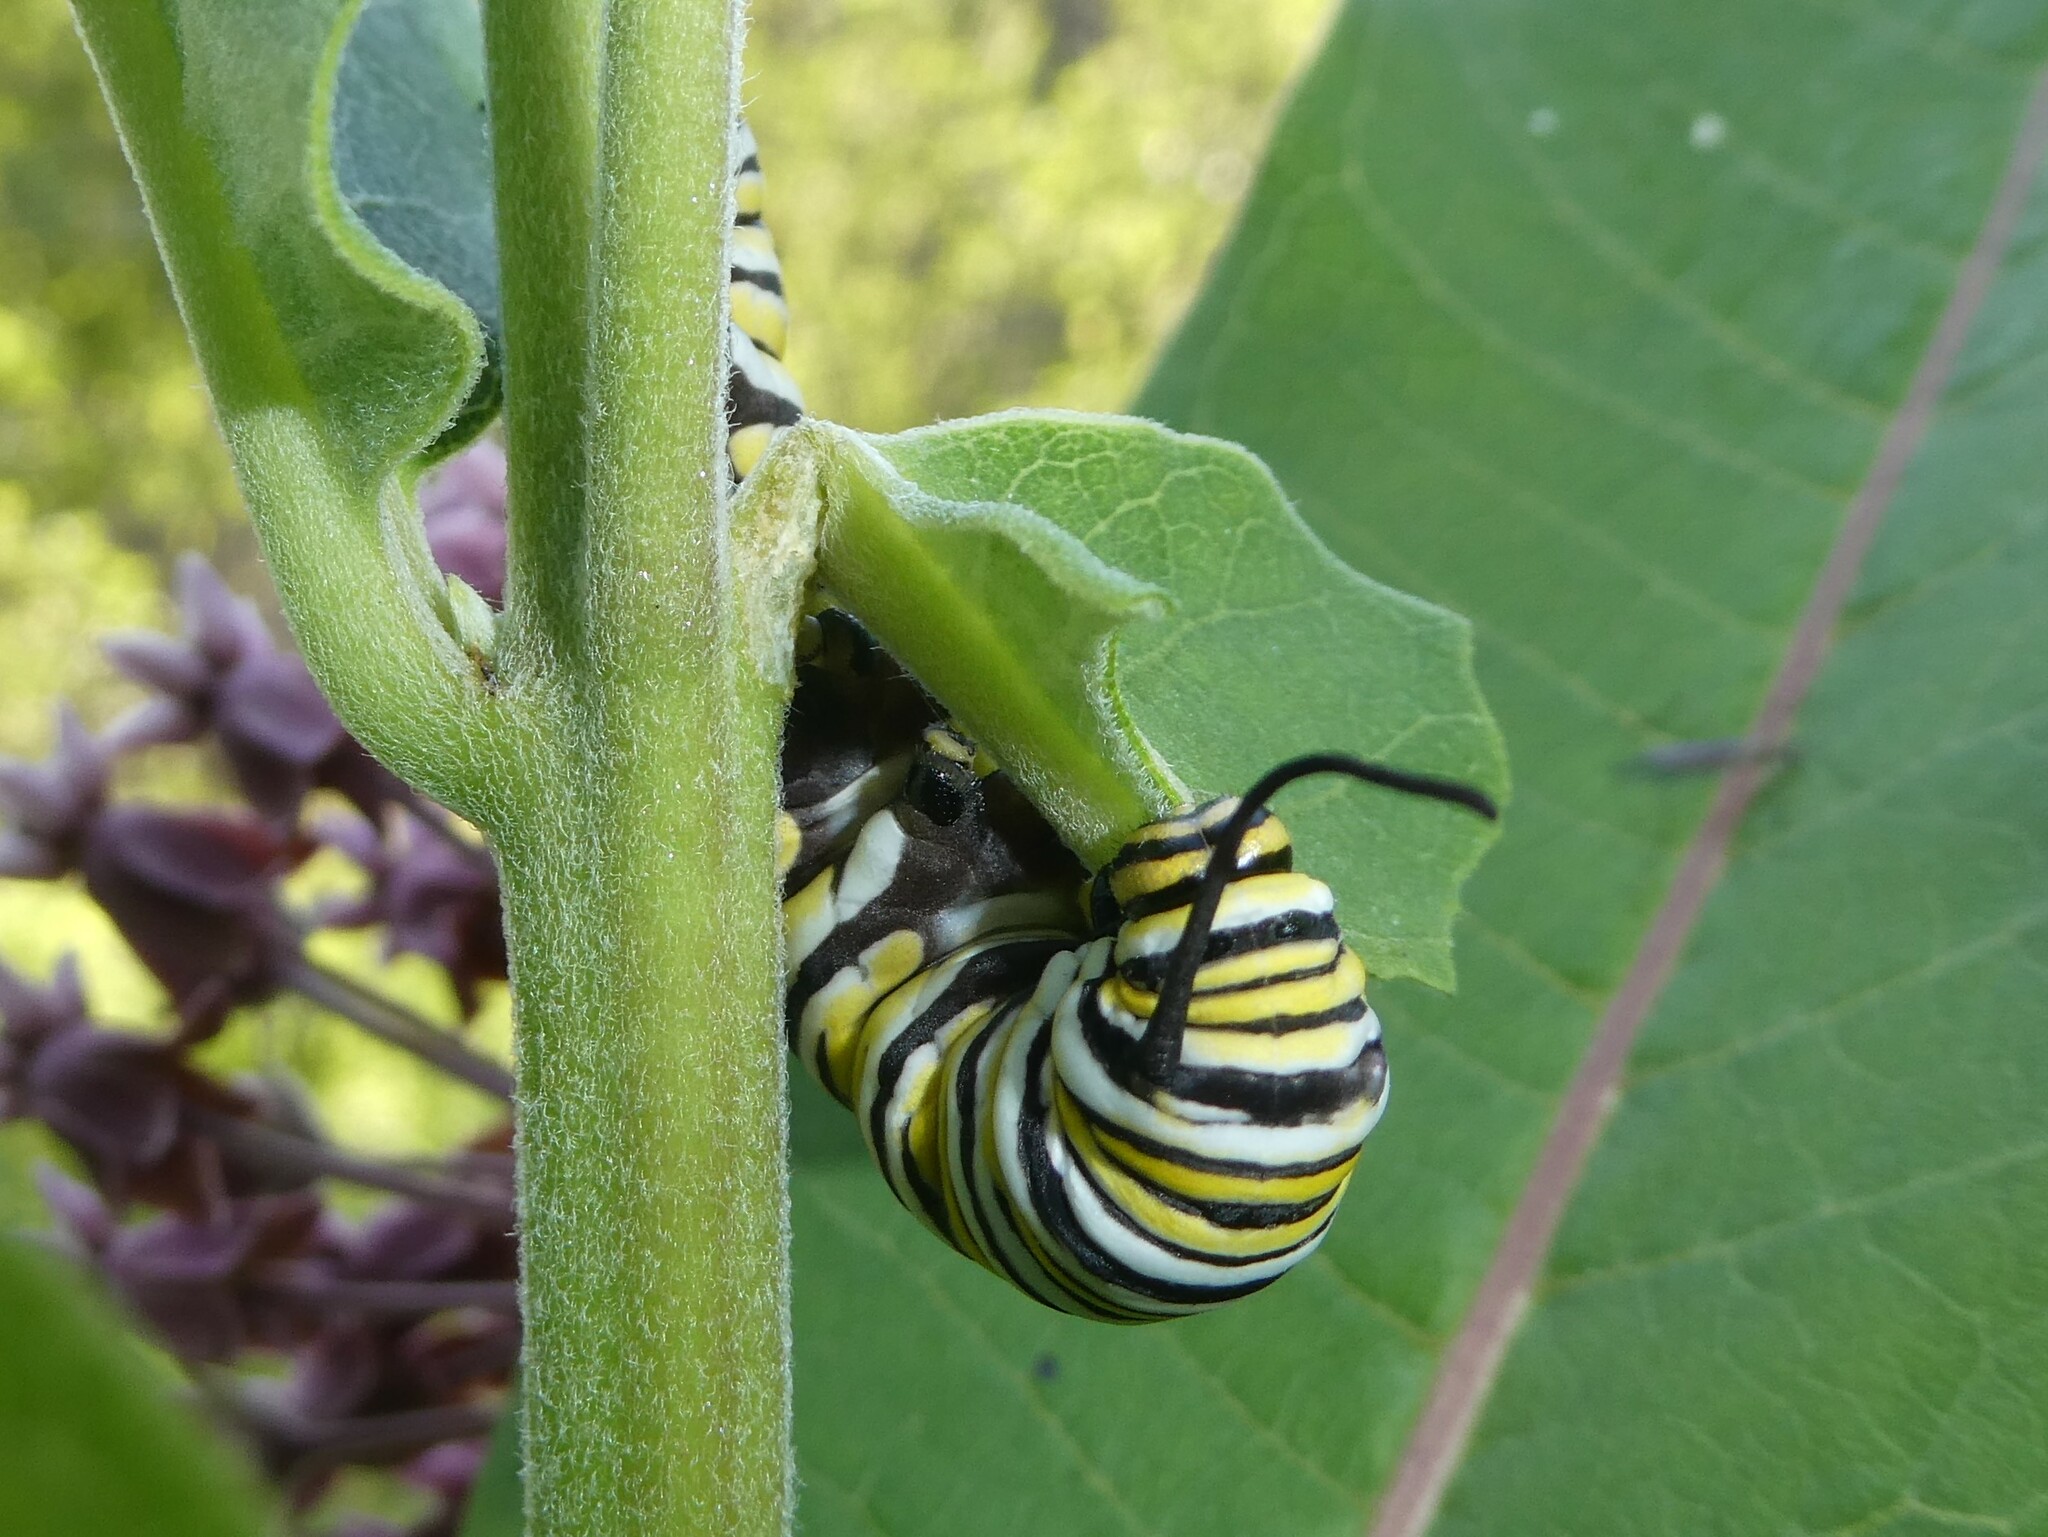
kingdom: Animalia
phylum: Arthropoda
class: Insecta
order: Lepidoptera
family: Nymphalidae
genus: Danaus
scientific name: Danaus plexippus
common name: Monarch
